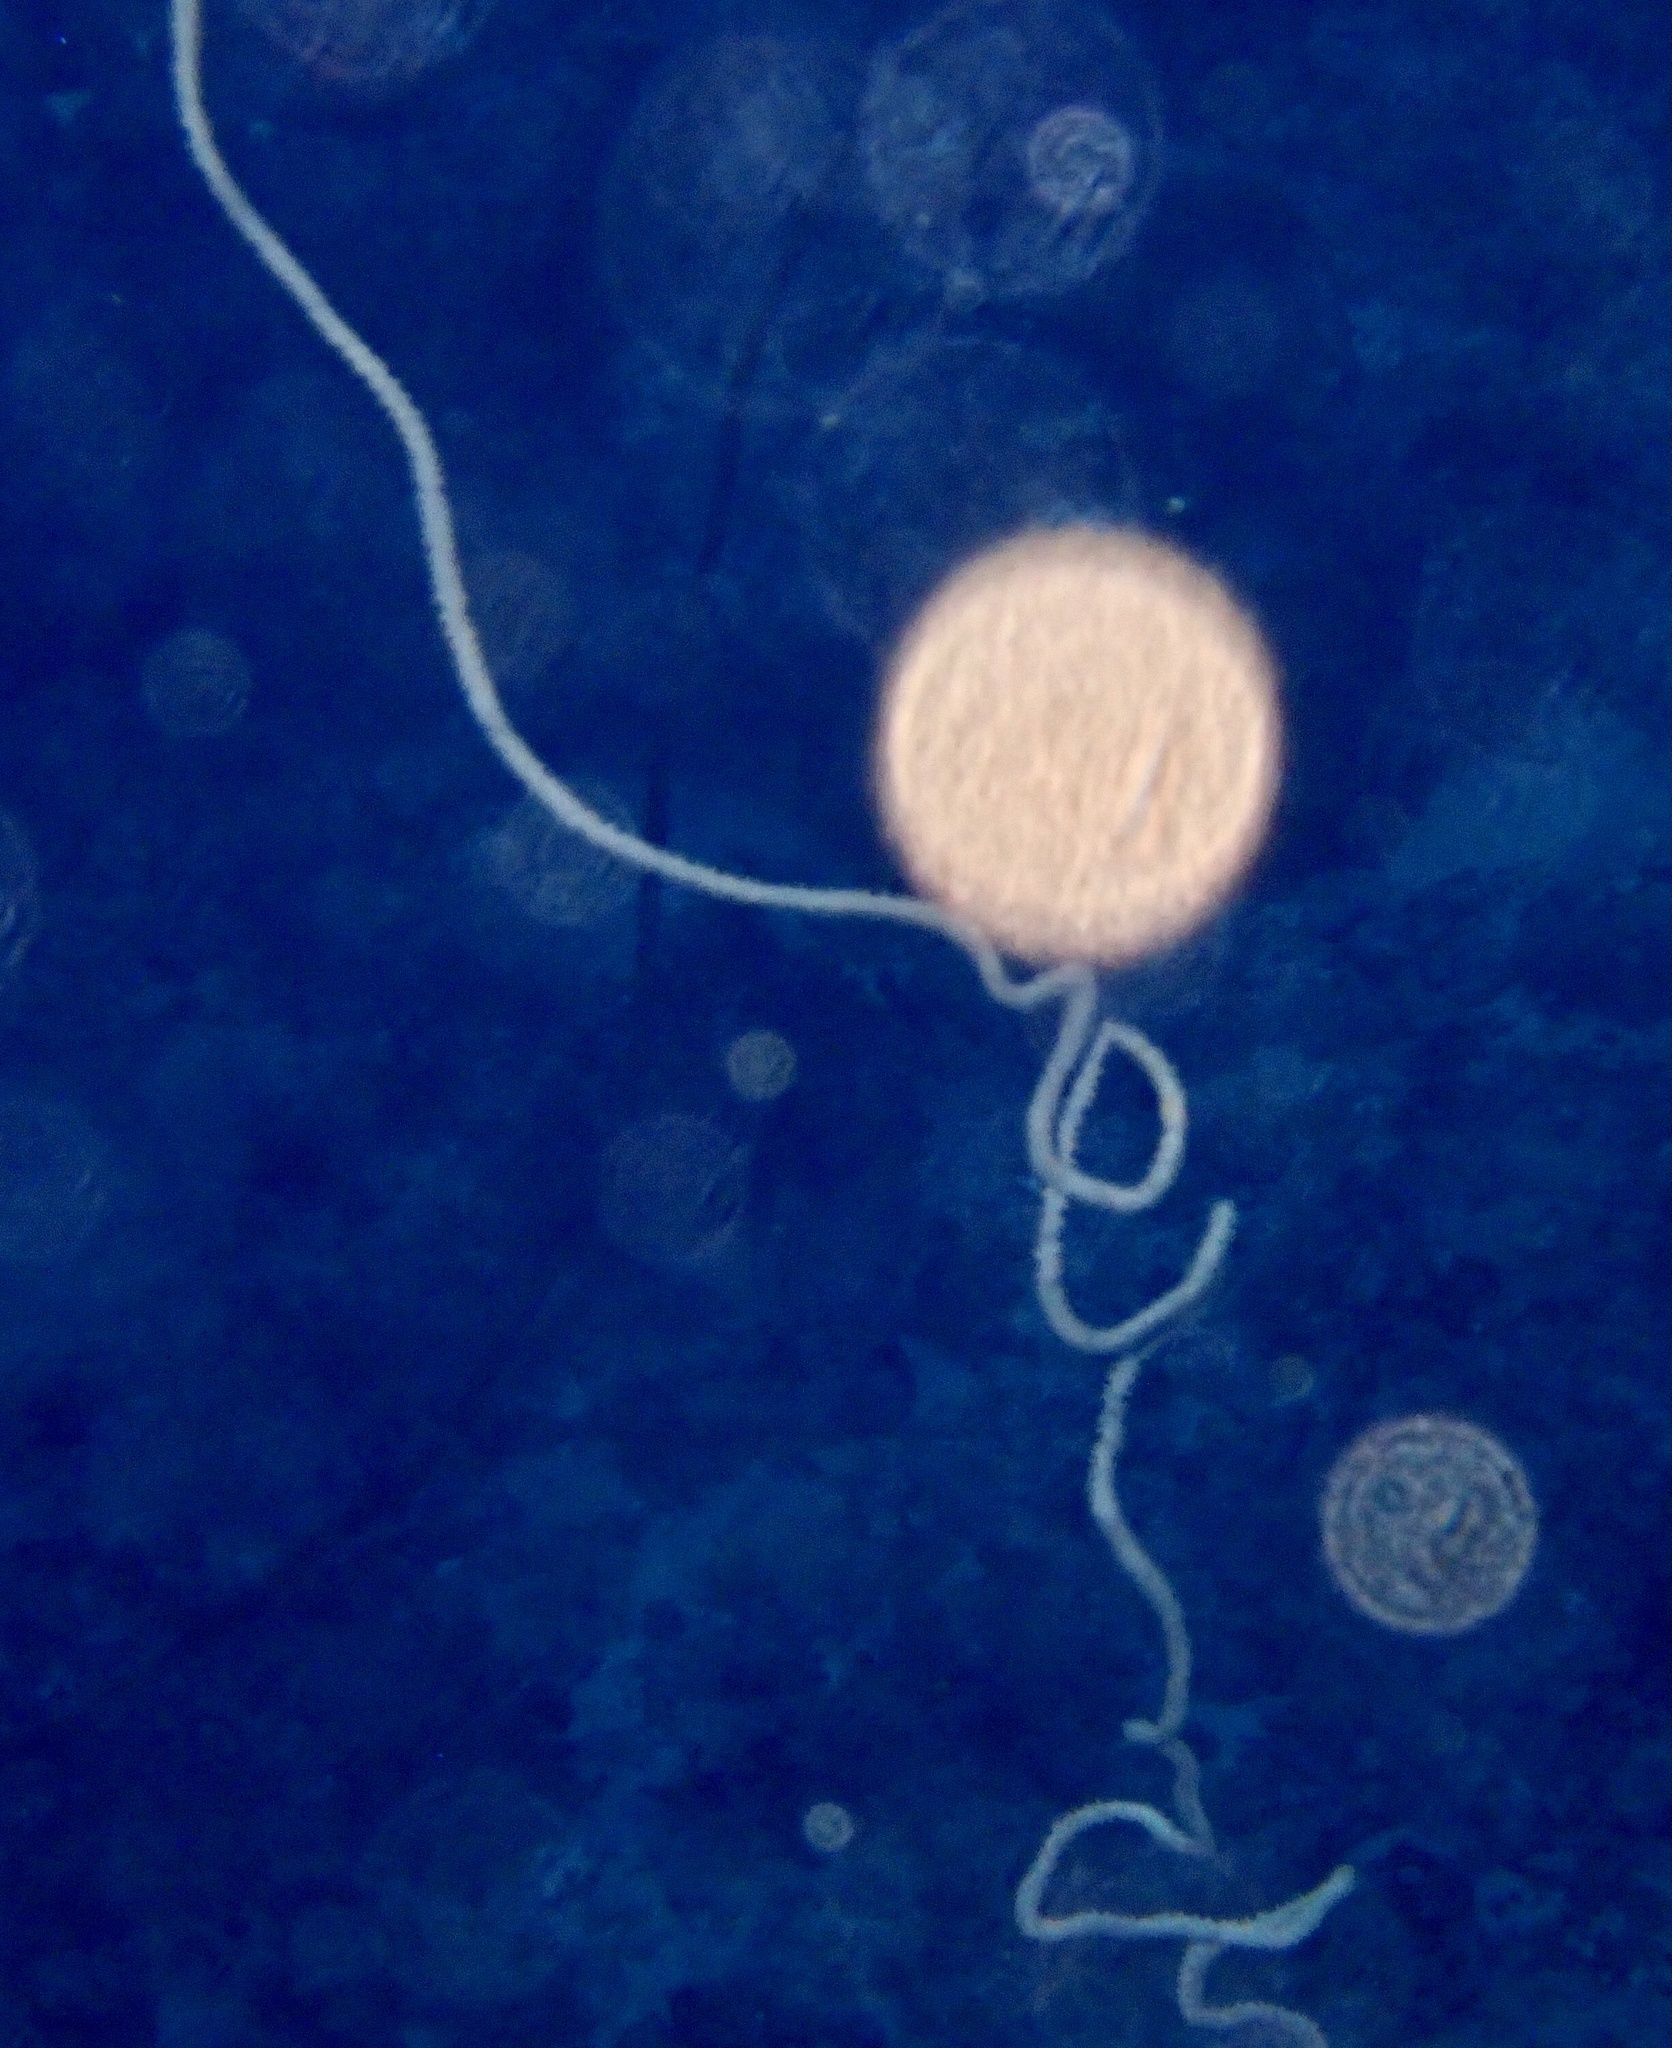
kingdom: Animalia
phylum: Cnidaria
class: Anthozoa
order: Antipatharia
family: Antipathidae
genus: Cirrhipathes
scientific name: Cirrhipathes
